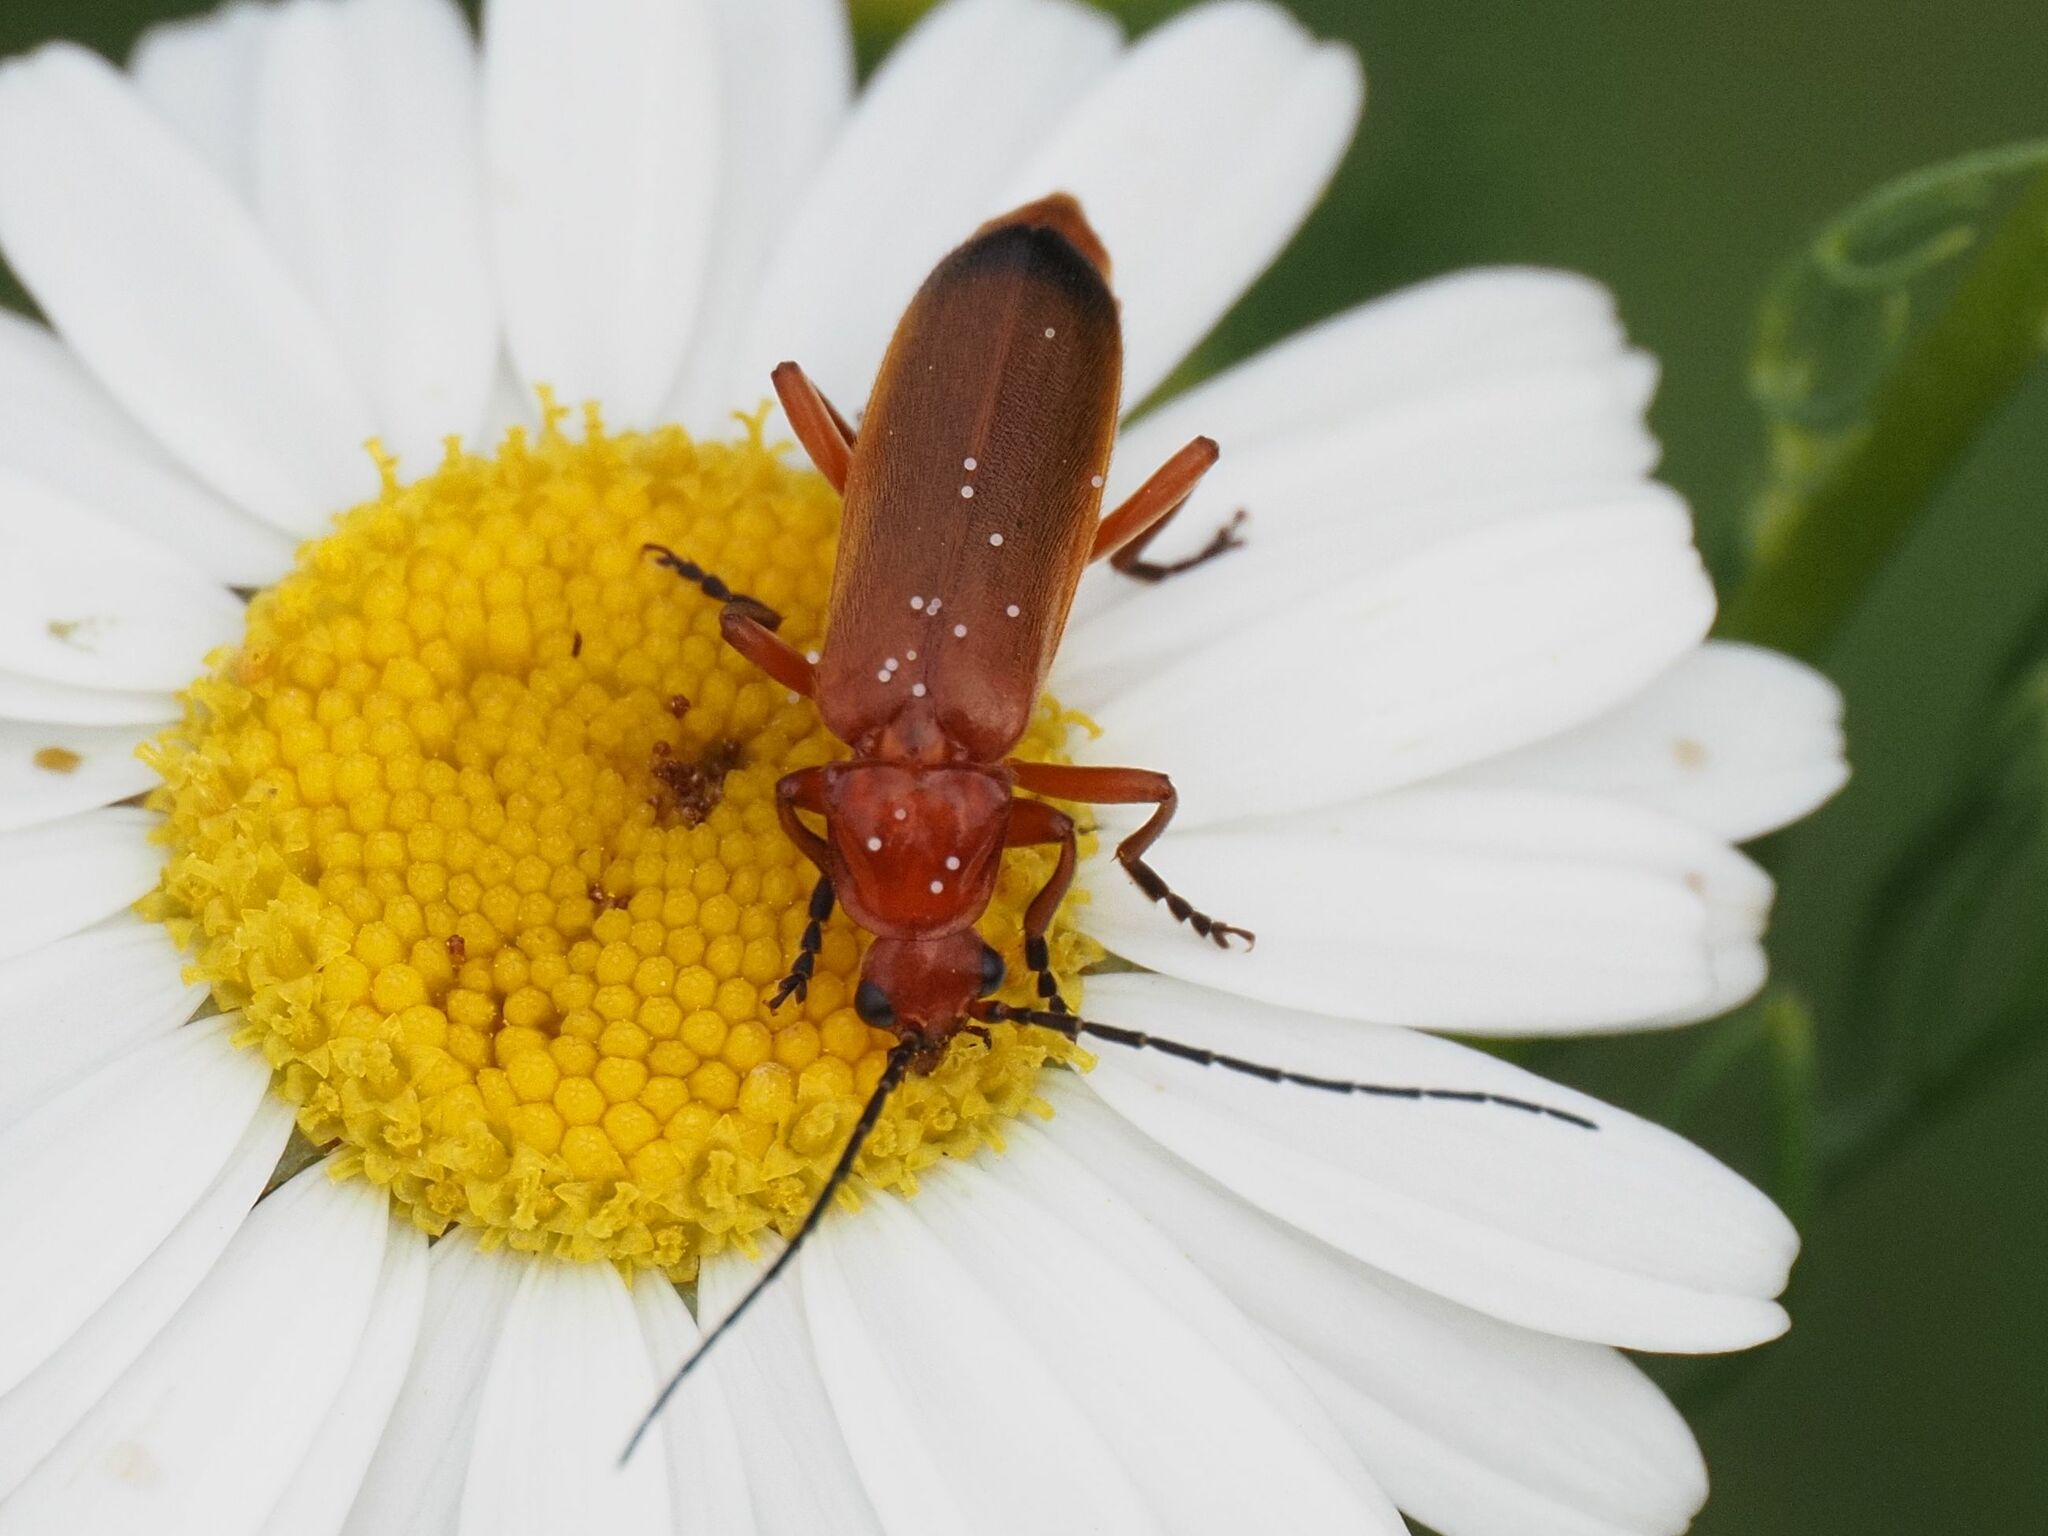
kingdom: Animalia
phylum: Arthropoda
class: Insecta
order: Coleoptera
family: Cantharidae
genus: Rhagonycha
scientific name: Rhagonycha fulva
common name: Common red soldier beetle
